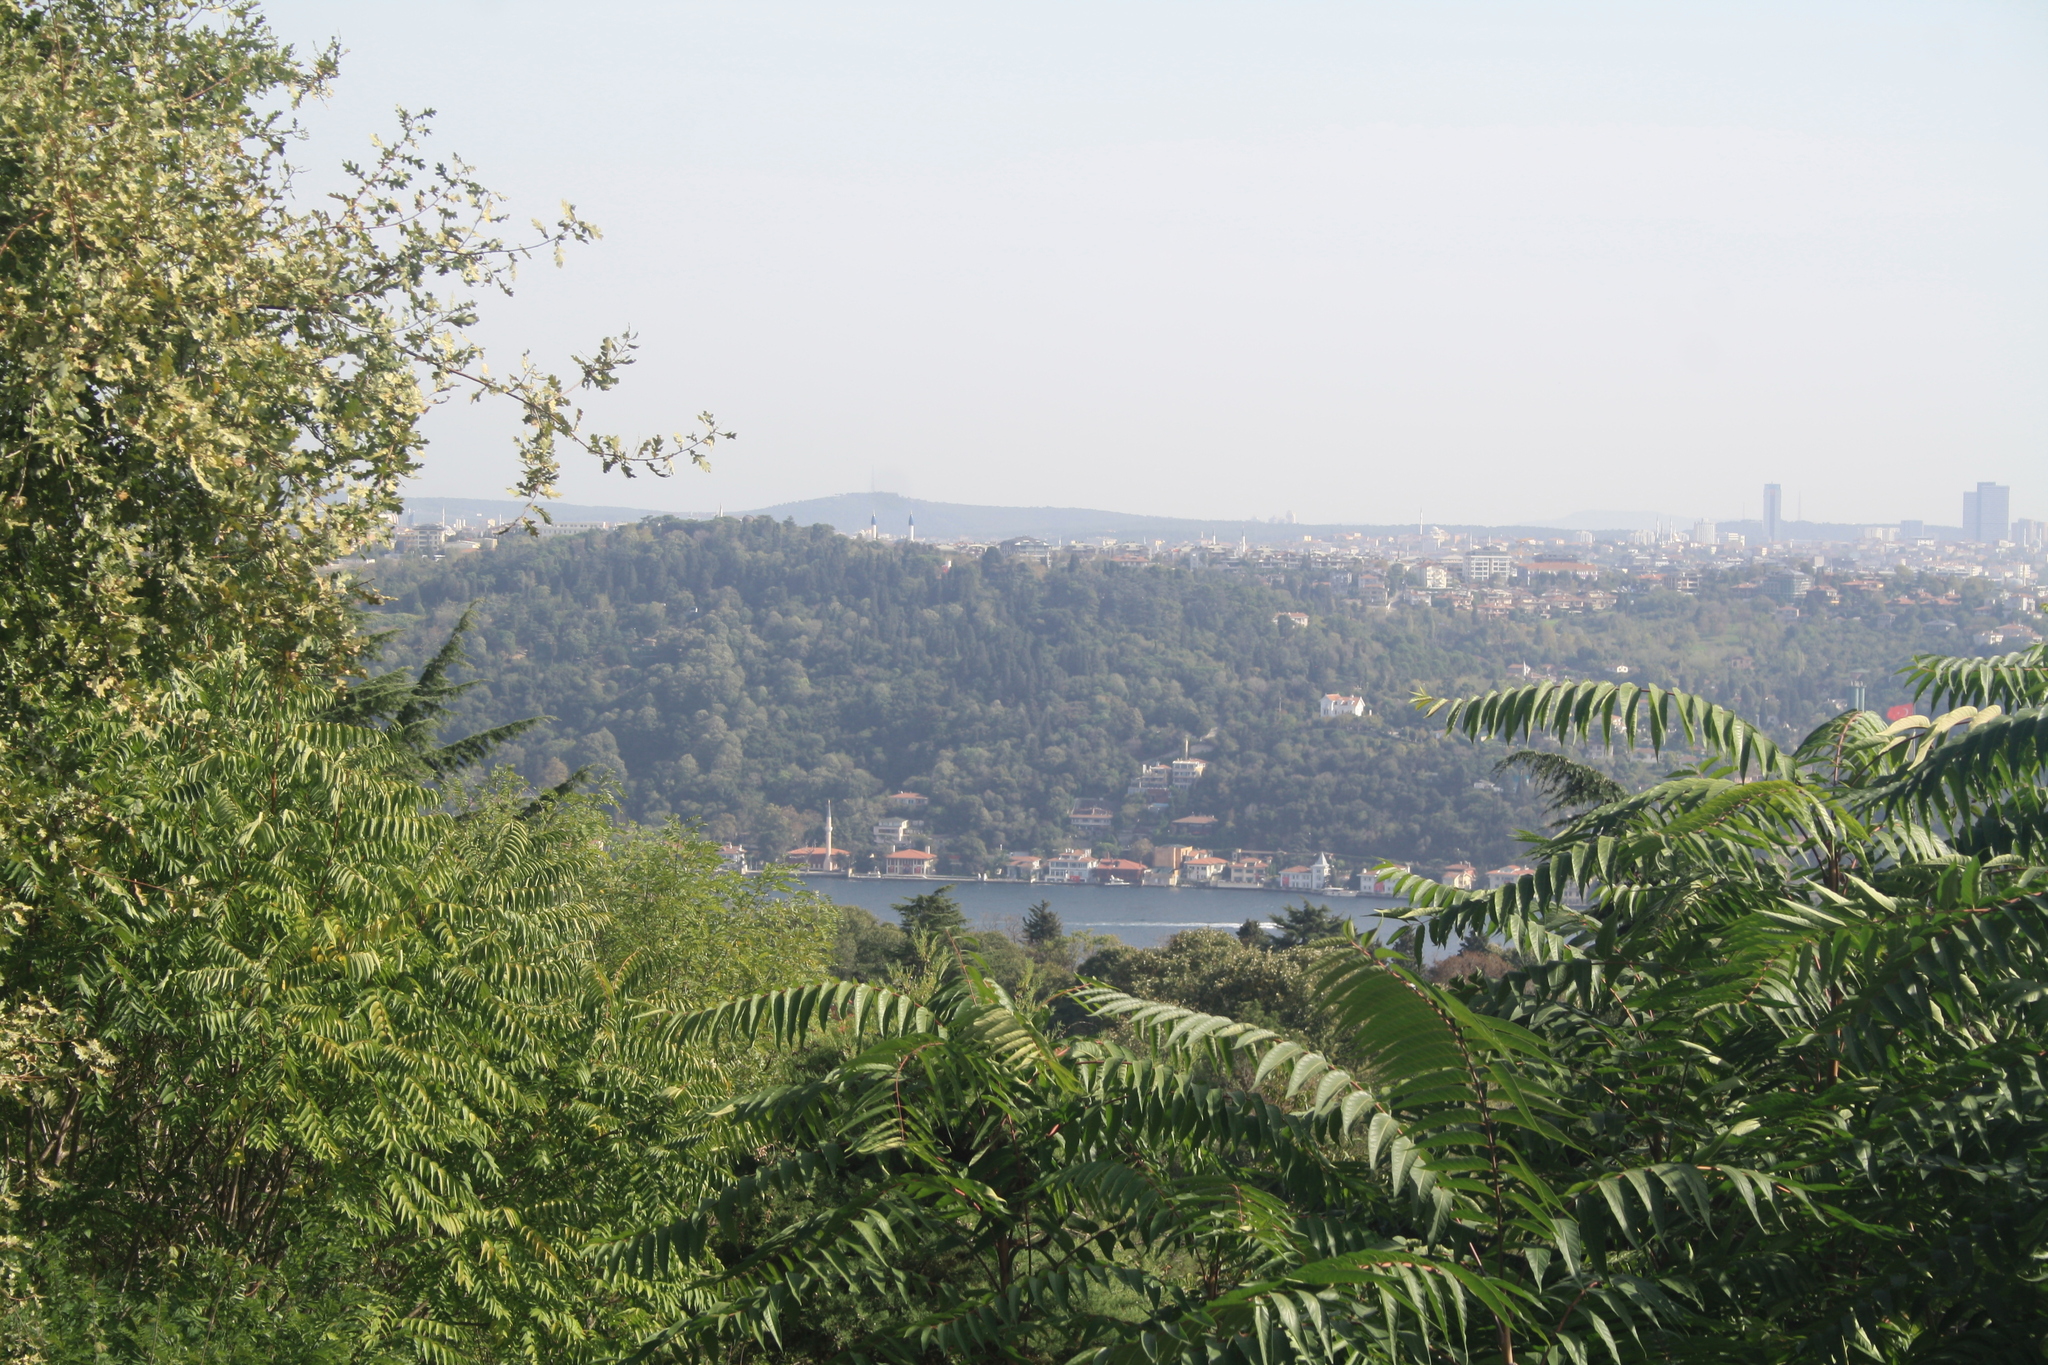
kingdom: Plantae
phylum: Tracheophyta
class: Magnoliopsida
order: Sapindales
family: Simaroubaceae
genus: Ailanthus
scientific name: Ailanthus altissima
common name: Tree-of-heaven
